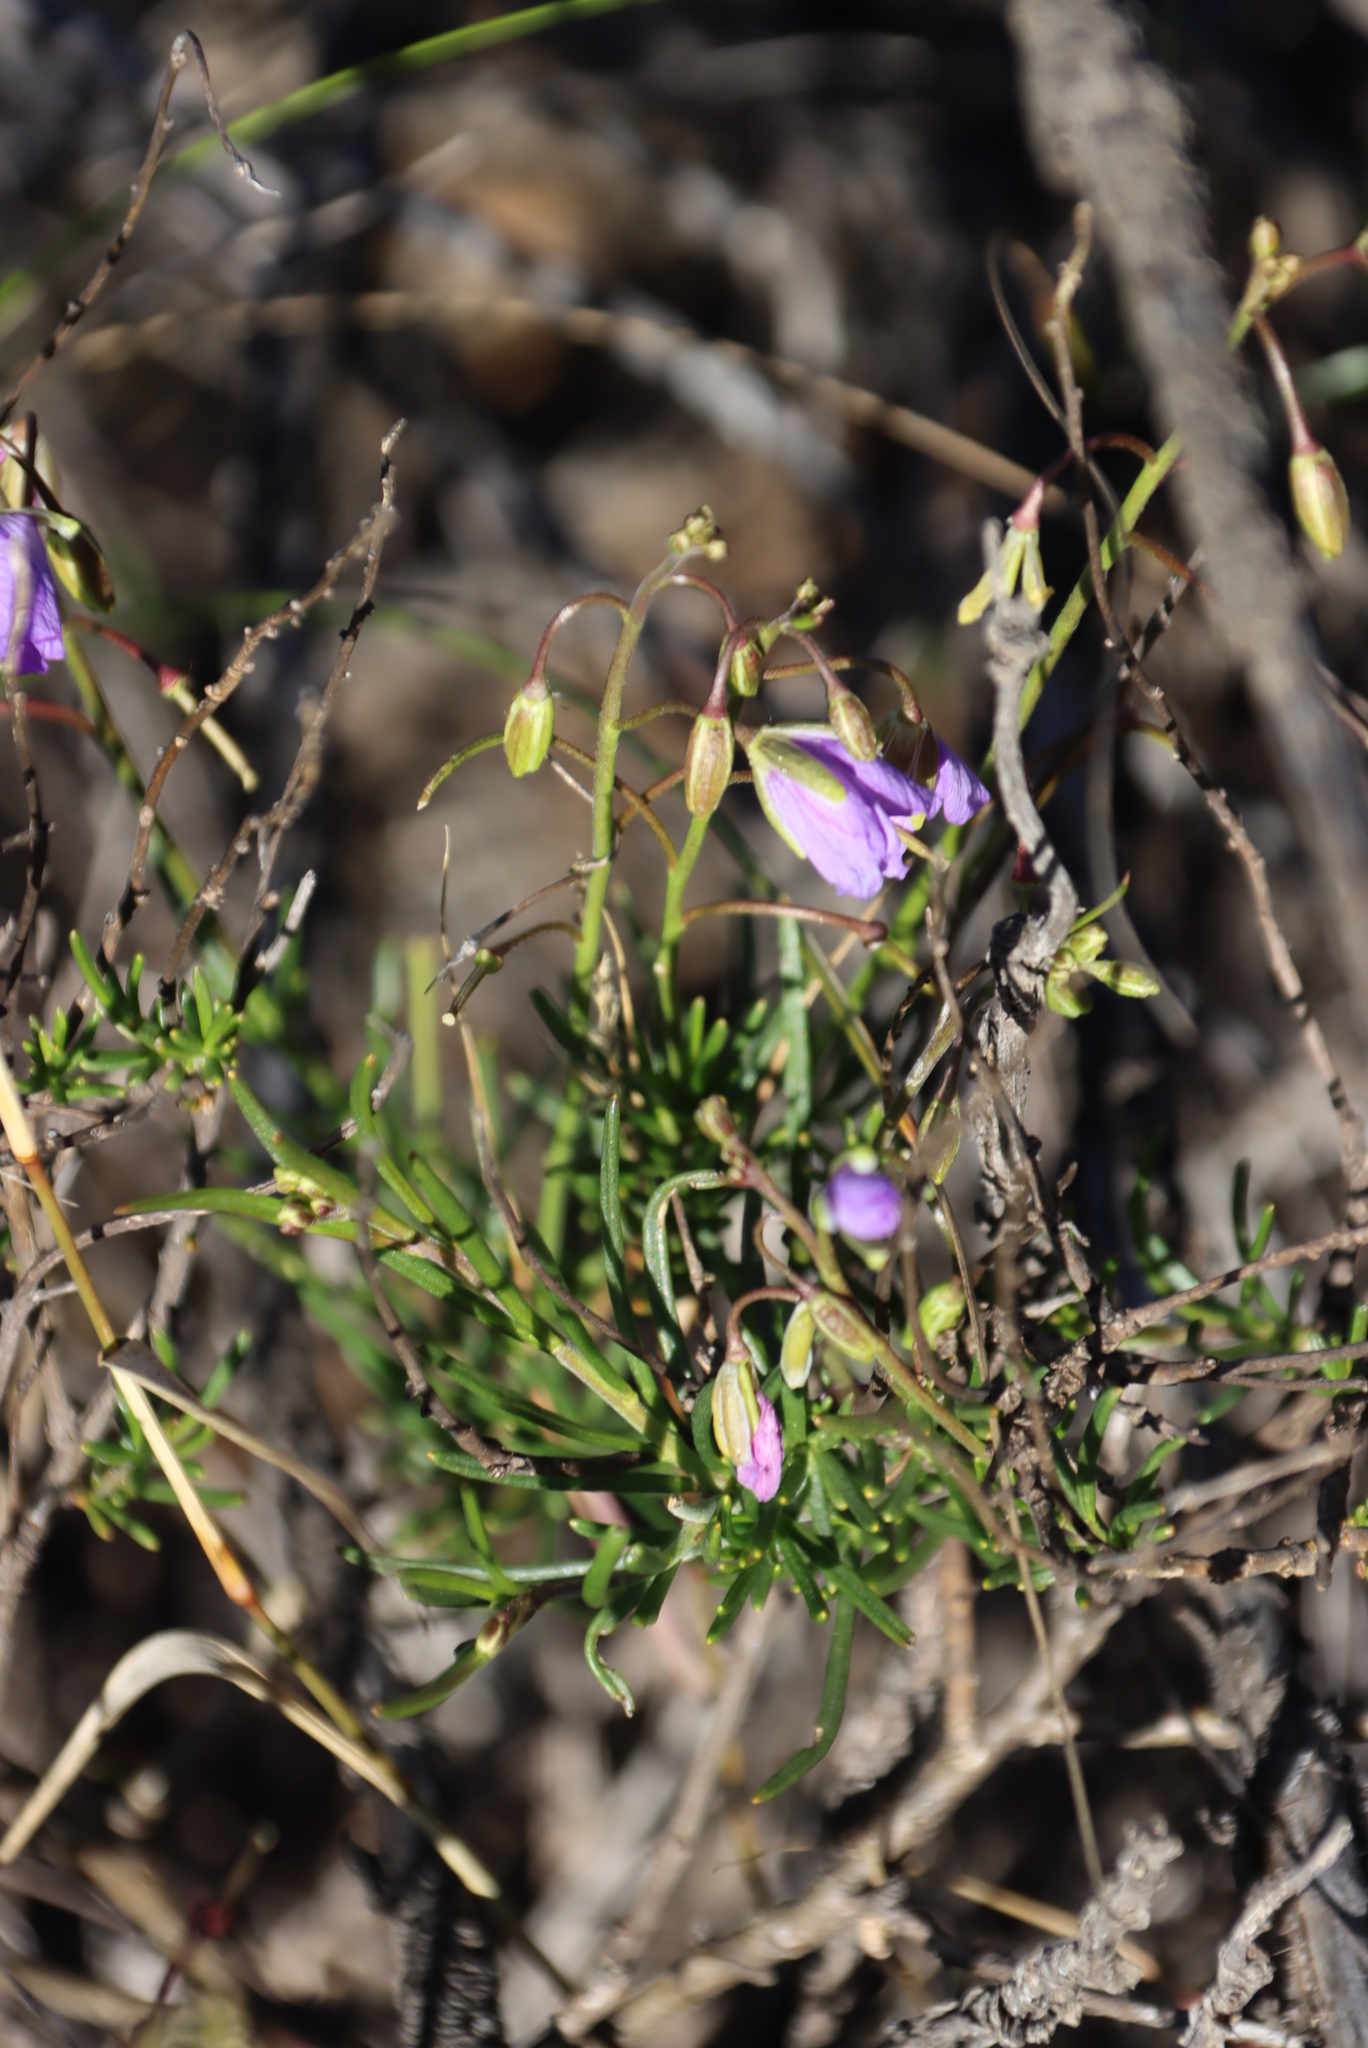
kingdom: Plantae
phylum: Tracheophyta
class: Magnoliopsida
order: Brassicales
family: Brassicaceae
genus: Heliophila
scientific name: Heliophila suavissima
